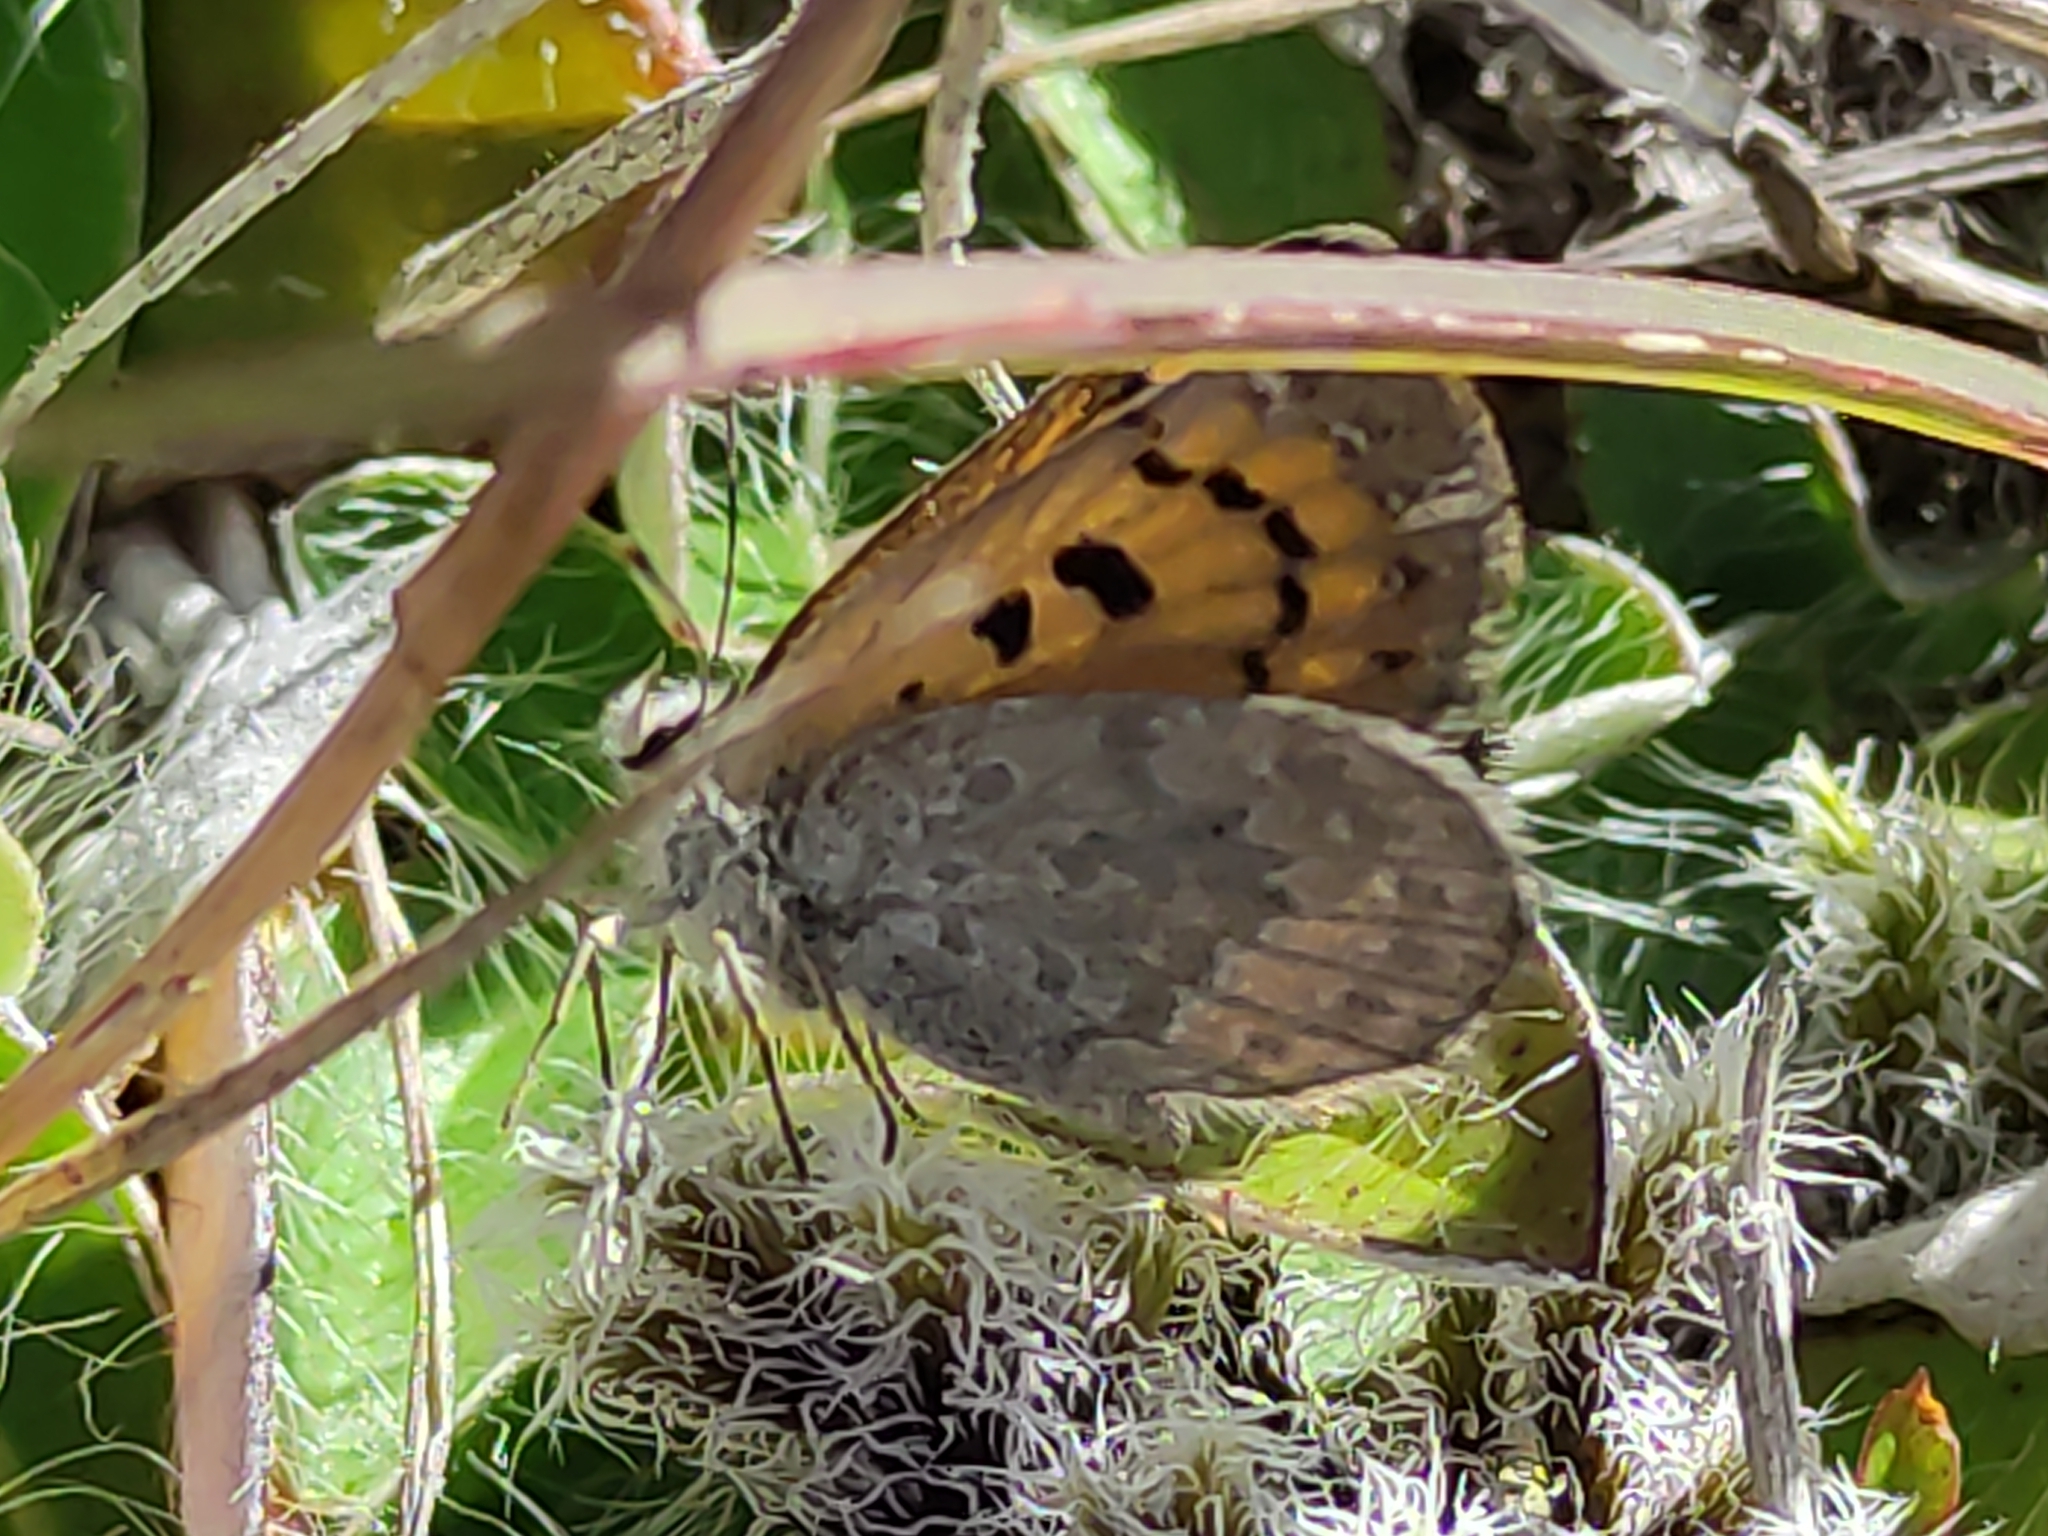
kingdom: Animalia
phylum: Arthropoda
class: Insecta
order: Lepidoptera
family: Lycaenidae
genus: Lycaena
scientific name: Lycaena boldenarum
